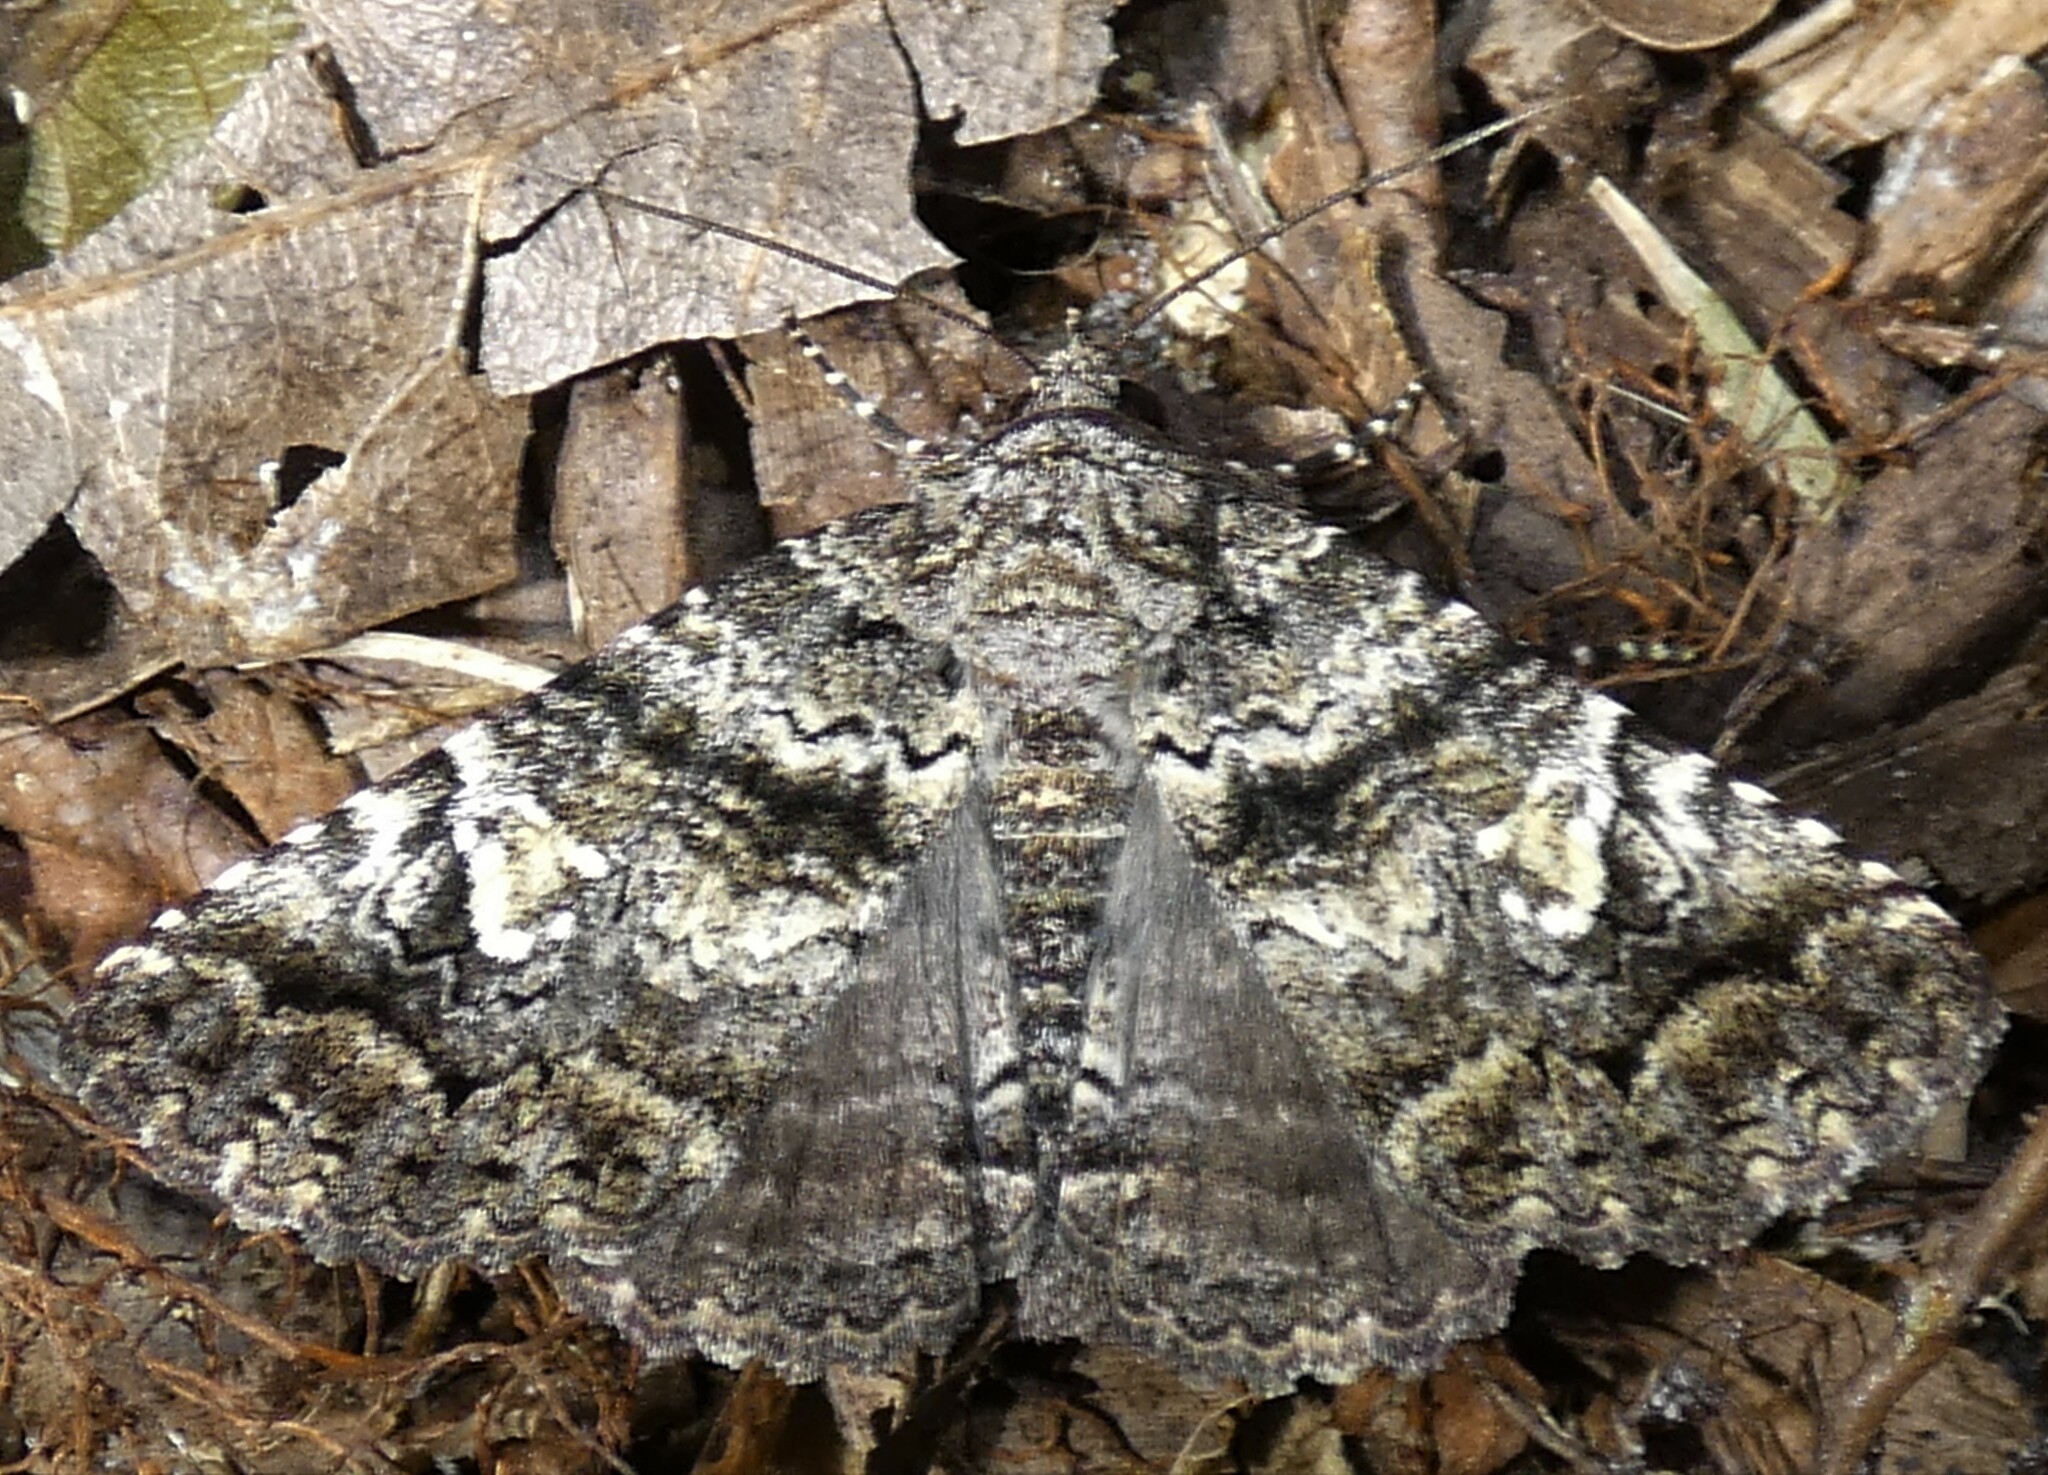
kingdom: Animalia
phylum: Arthropoda
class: Insecta
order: Lepidoptera
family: Erebidae
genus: Metria
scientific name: Metria amella
